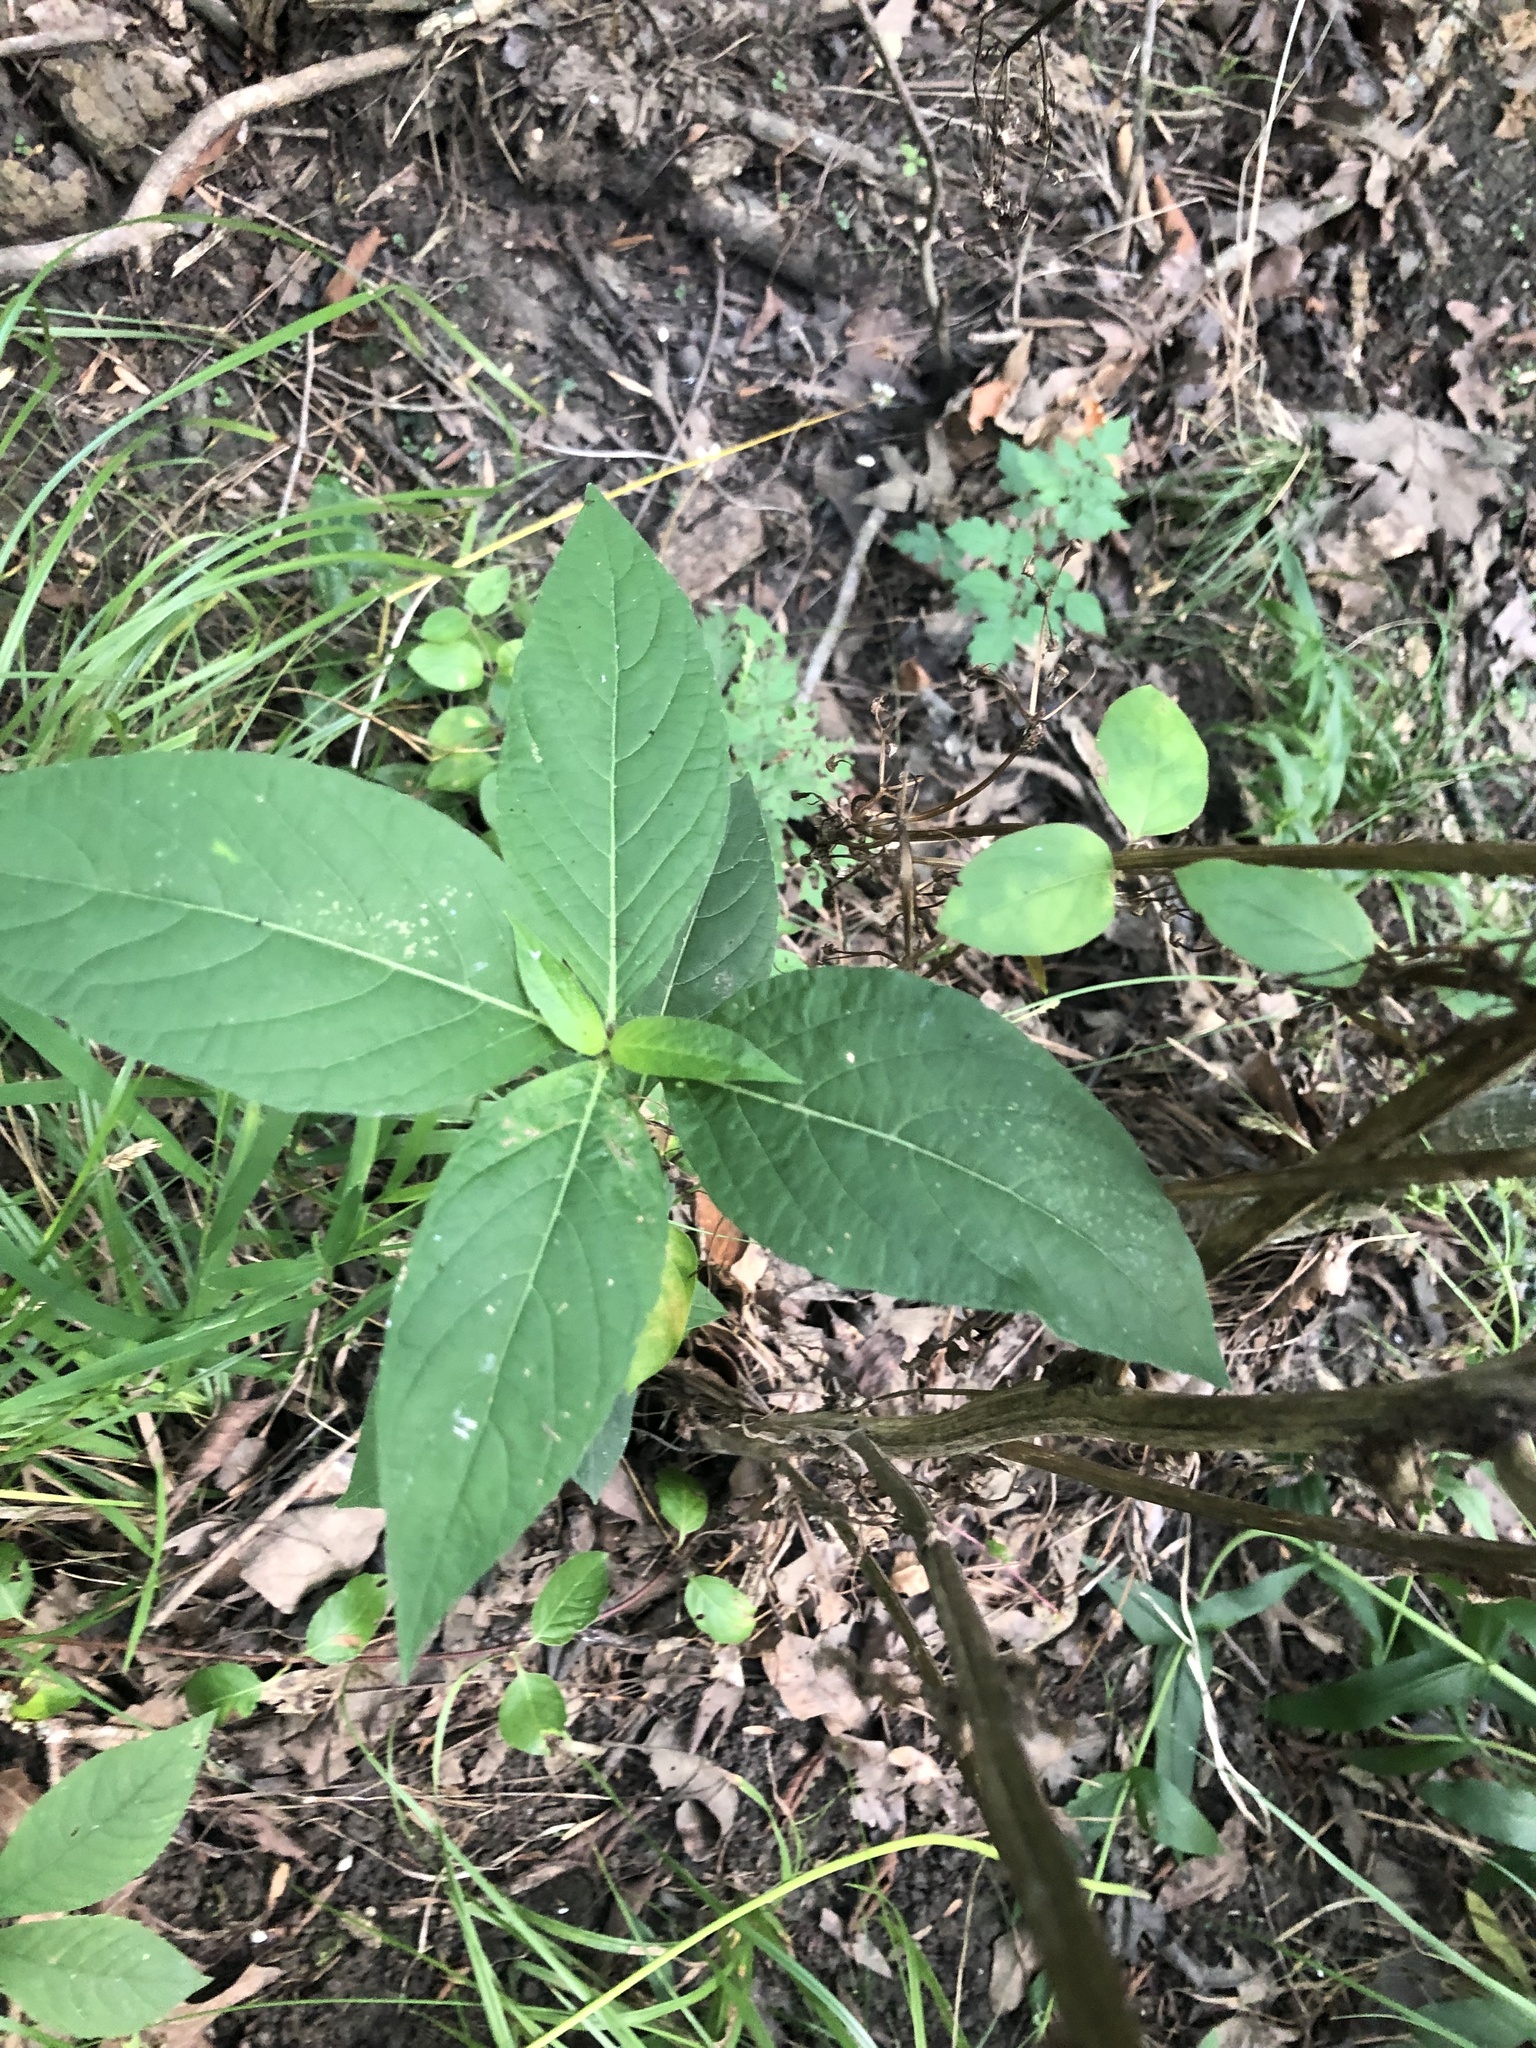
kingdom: Plantae
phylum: Tracheophyta
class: Magnoliopsida
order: Lamiales
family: Acanthaceae
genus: Ruellia
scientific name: Ruellia strepens
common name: Limestone wild petunia
